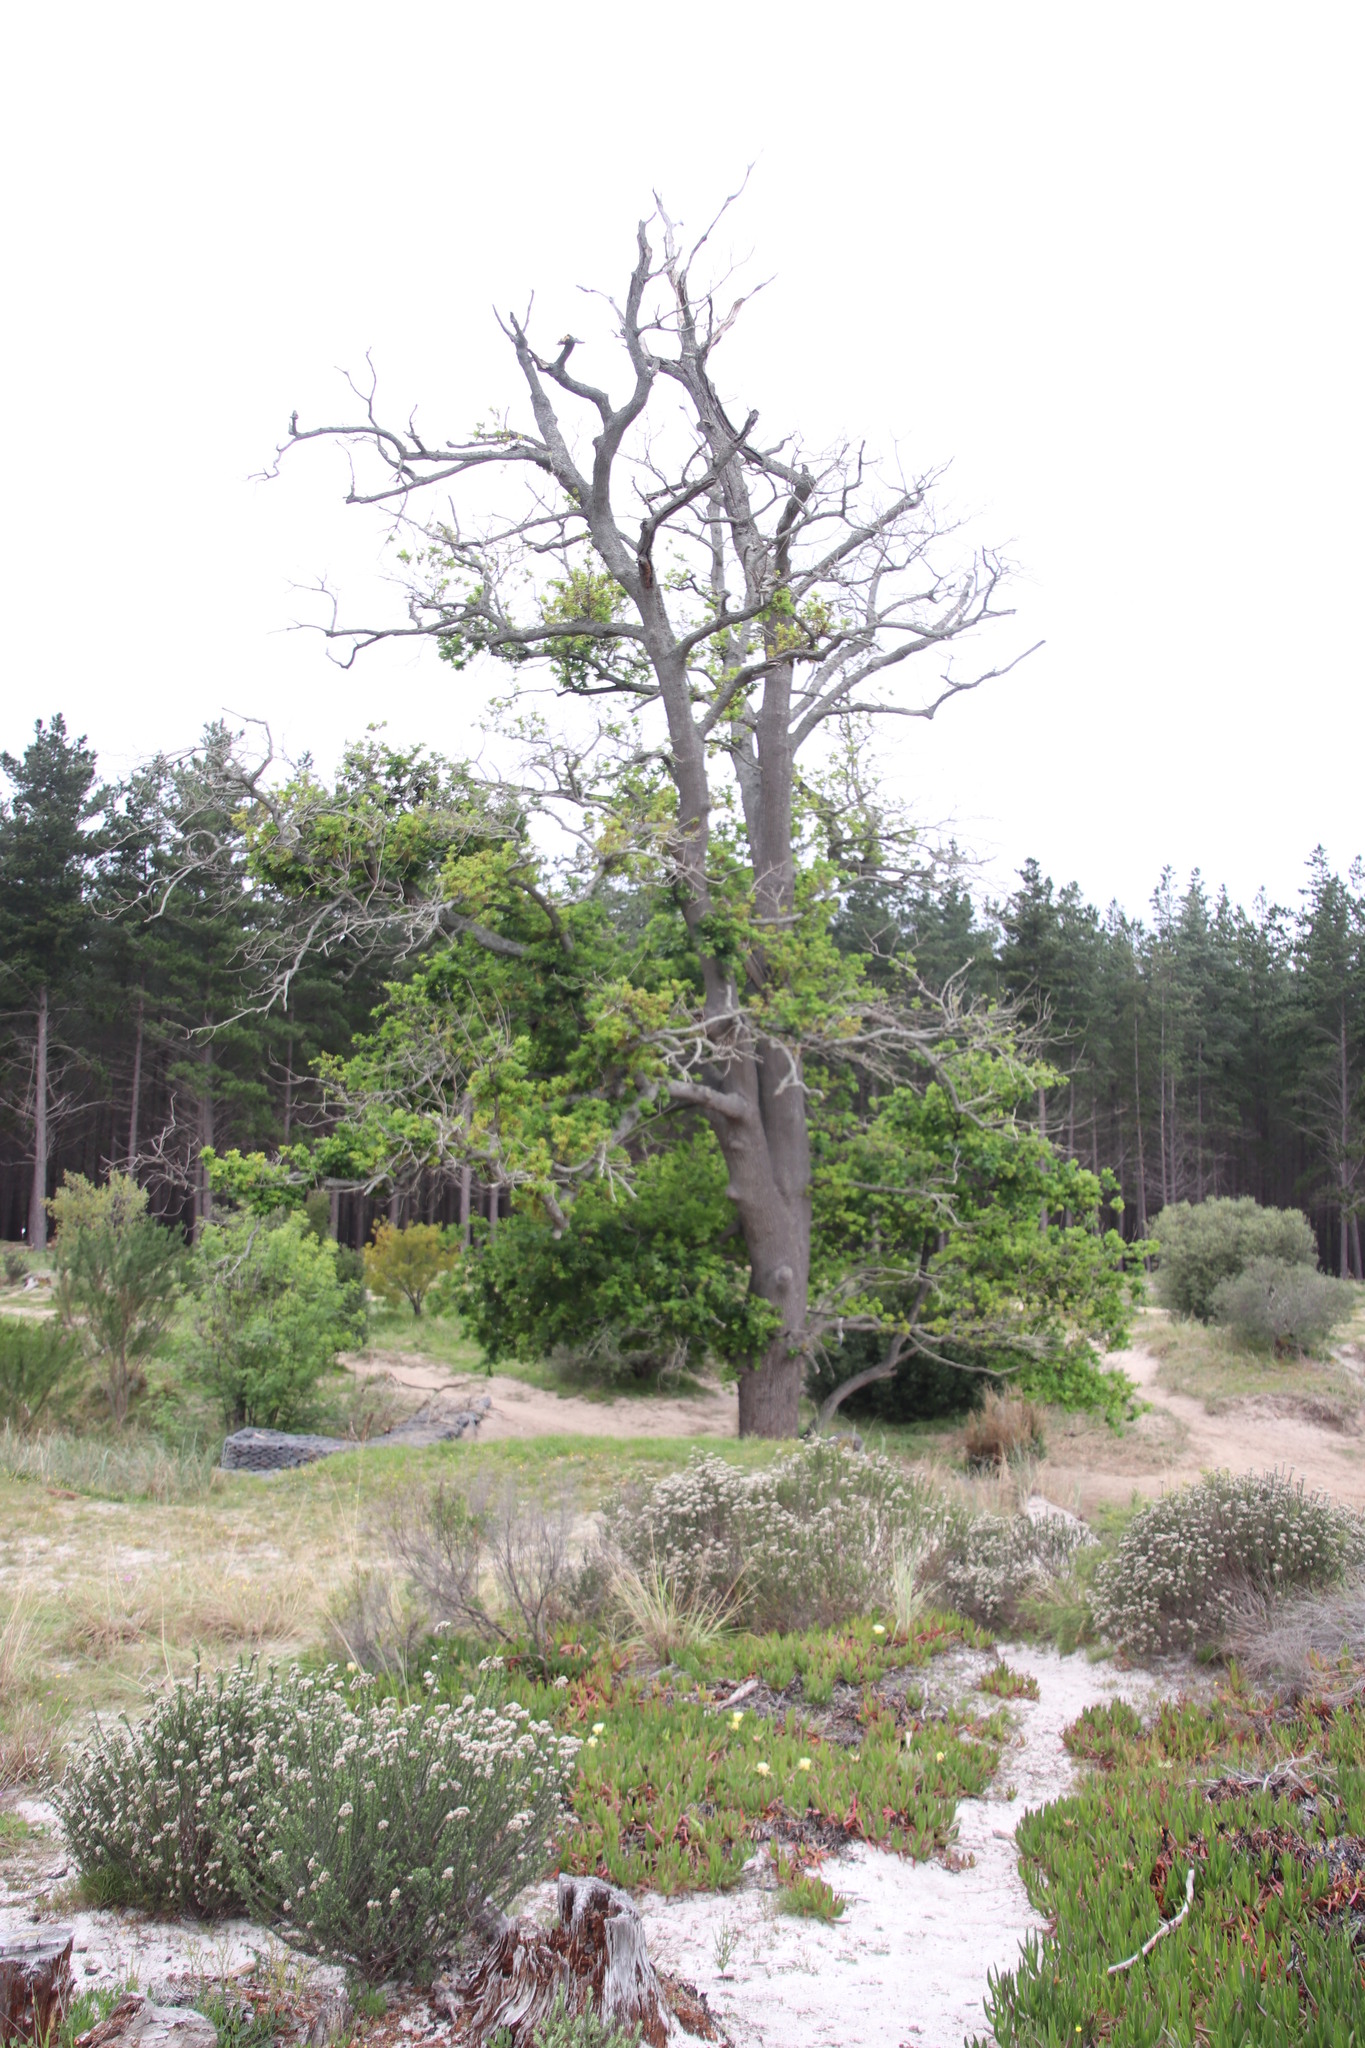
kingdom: Plantae
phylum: Tracheophyta
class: Magnoliopsida
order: Fagales
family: Fagaceae
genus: Quercus
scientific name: Quercus robur
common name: Pedunculate oak
